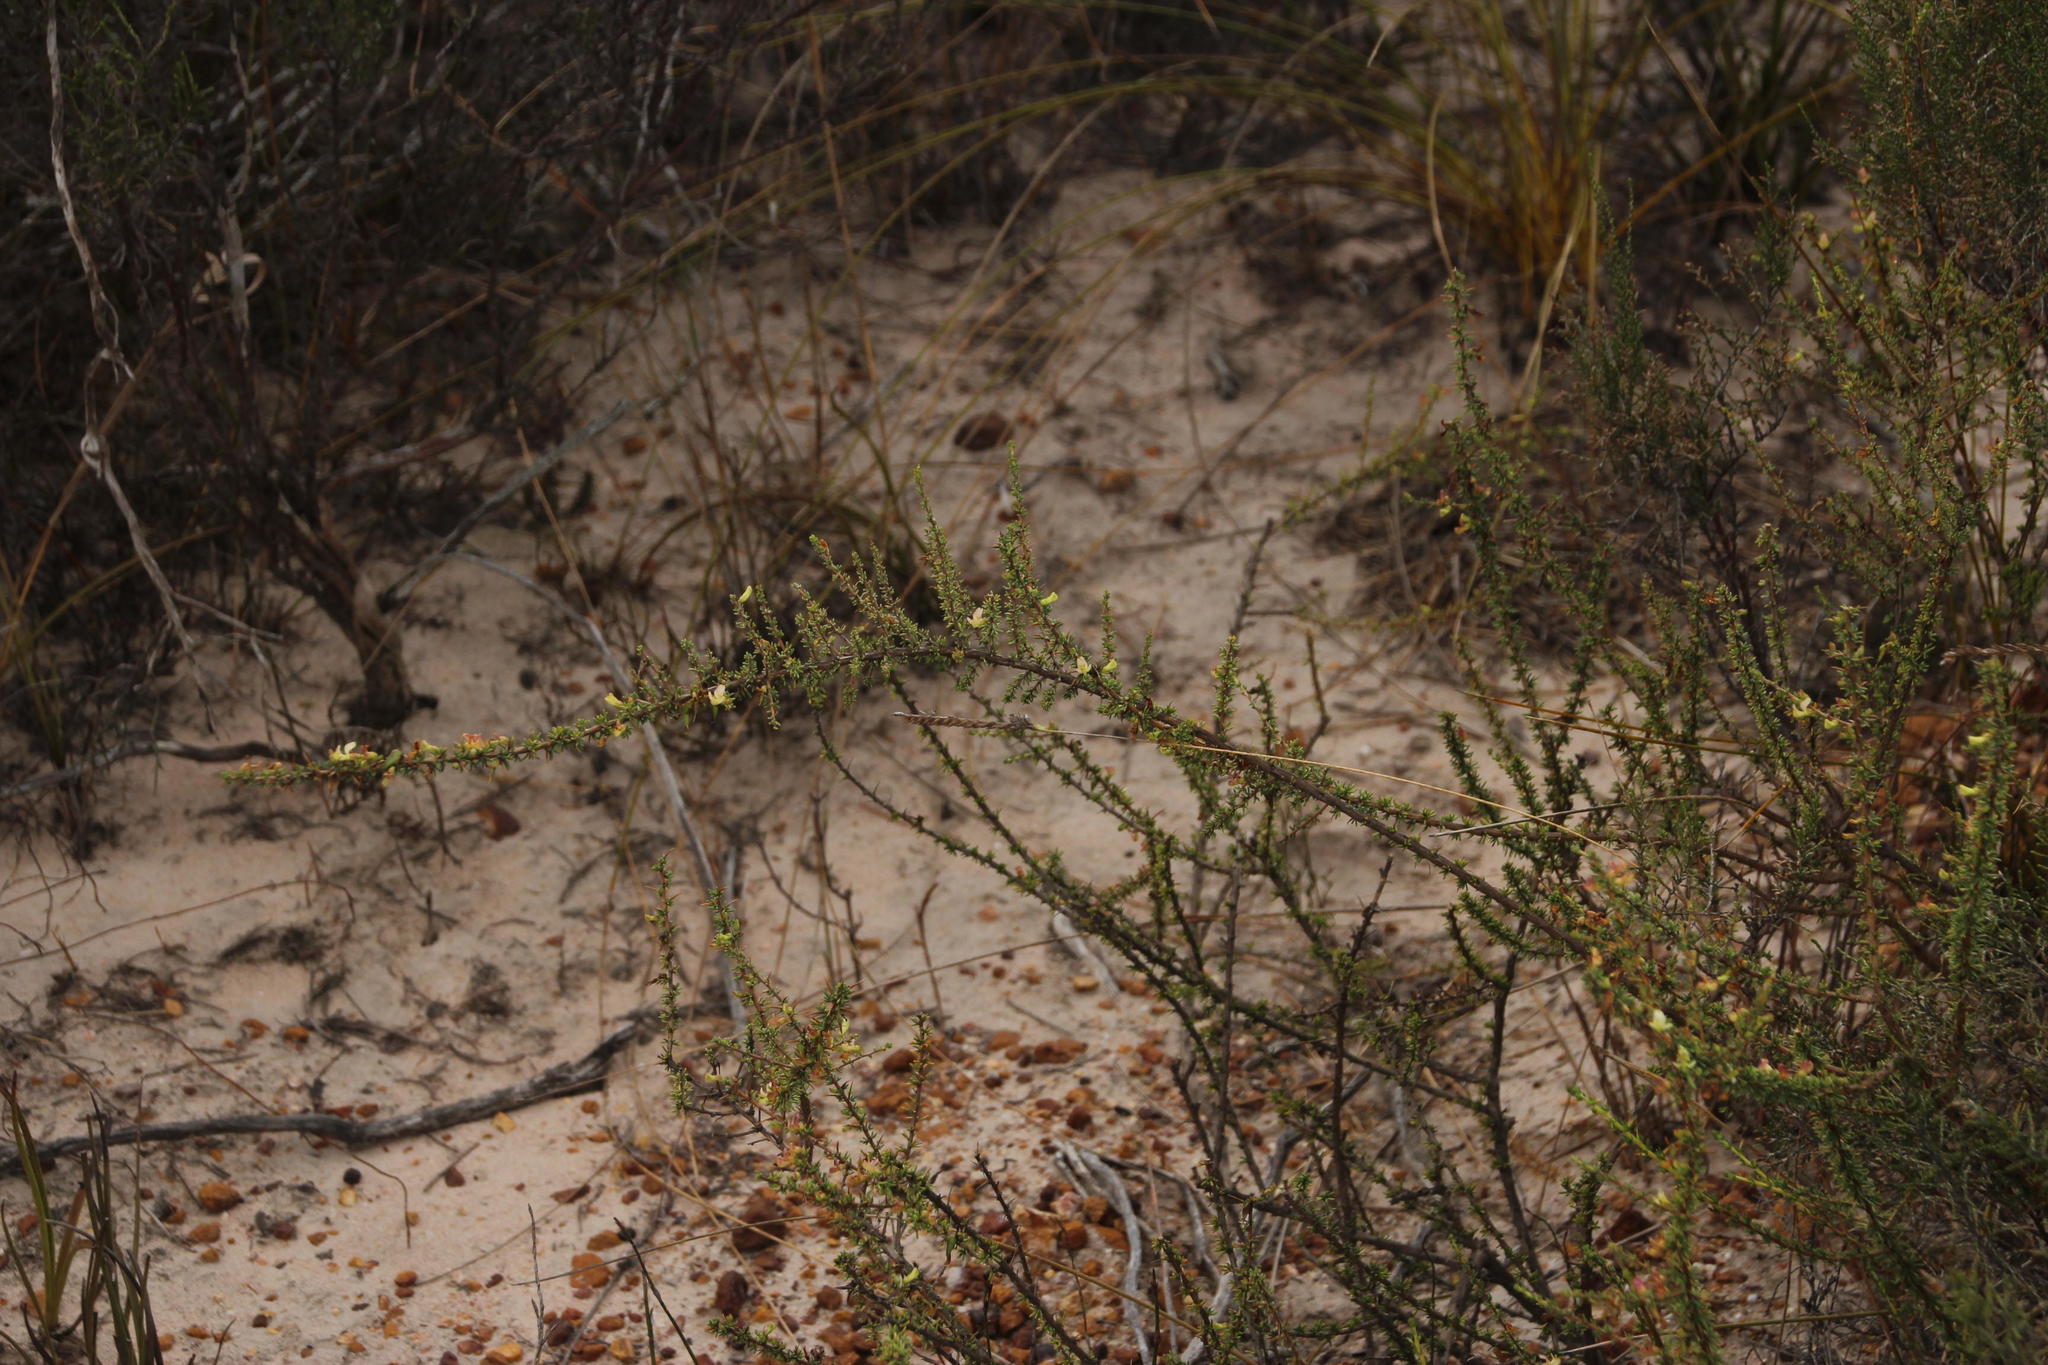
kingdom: Plantae
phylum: Tracheophyta
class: Magnoliopsida
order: Fabales
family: Fabaceae
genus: Aspalathus
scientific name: Aspalathus spinosa
